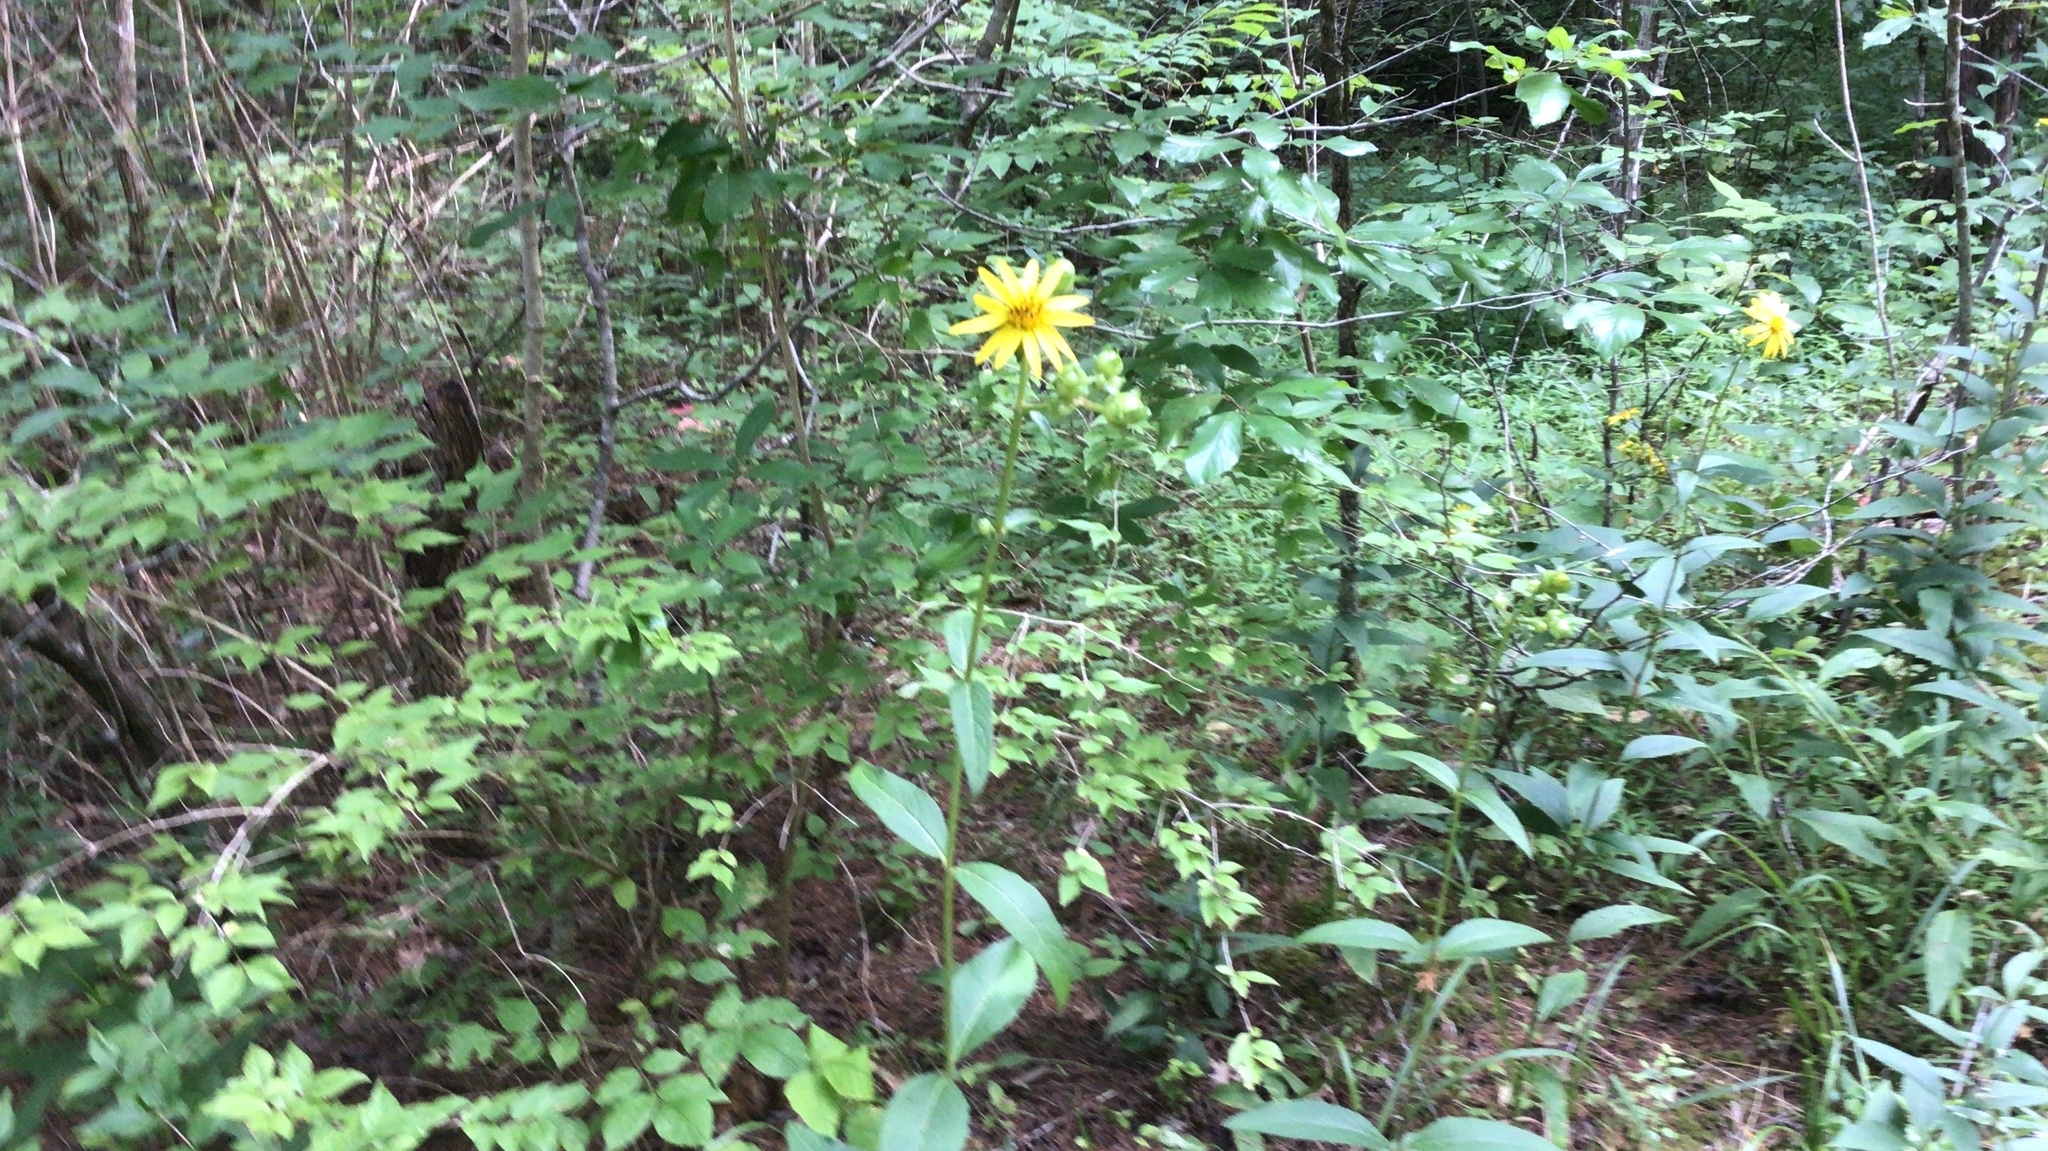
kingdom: Plantae
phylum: Tracheophyta
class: Magnoliopsida
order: Asterales
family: Asteraceae
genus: Silphium
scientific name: Silphium asteriscus
